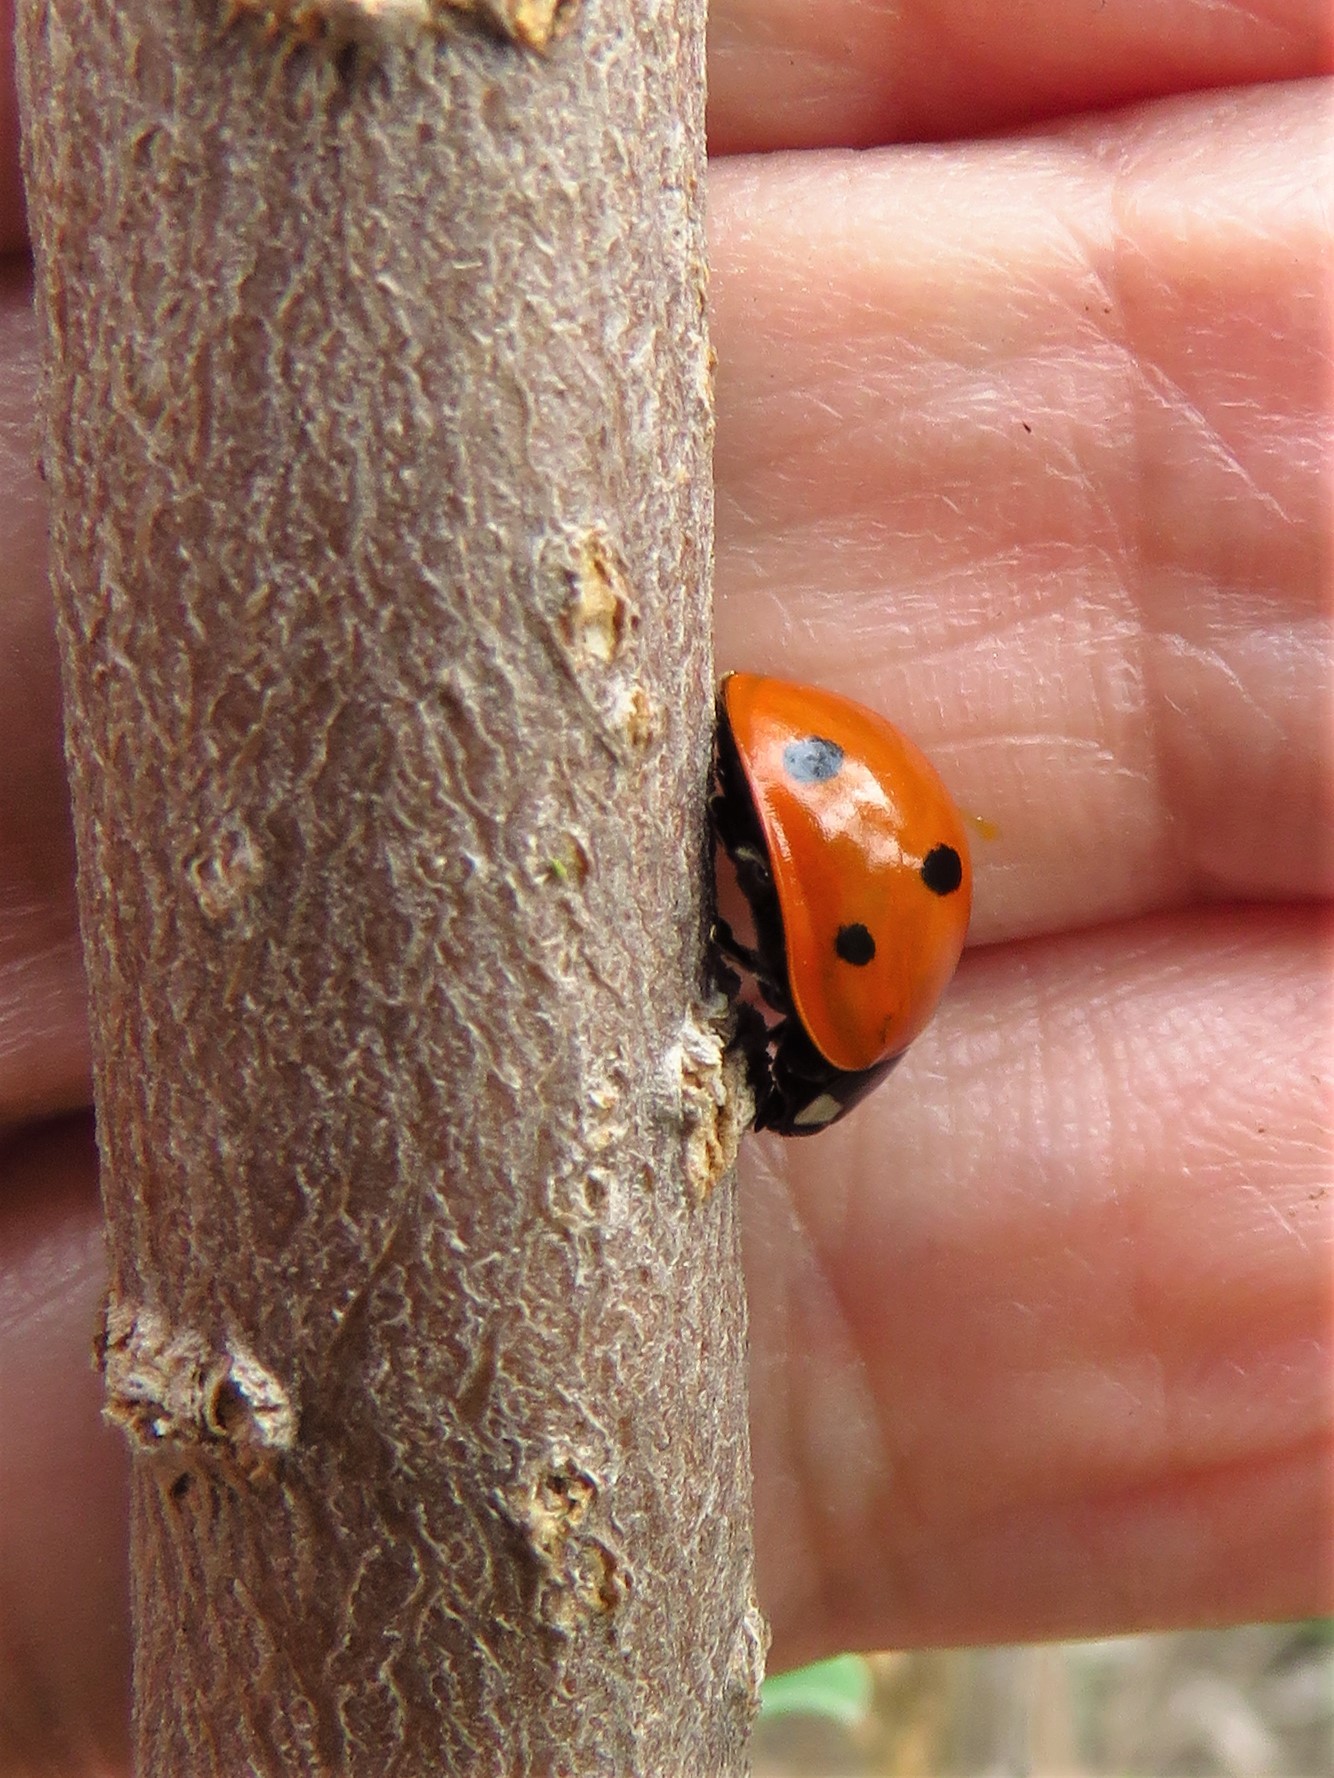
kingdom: Animalia
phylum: Arthropoda
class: Insecta
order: Coleoptera
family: Coccinellidae
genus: Coccinella
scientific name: Coccinella septempunctata
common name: Sevenspotted lady beetle
